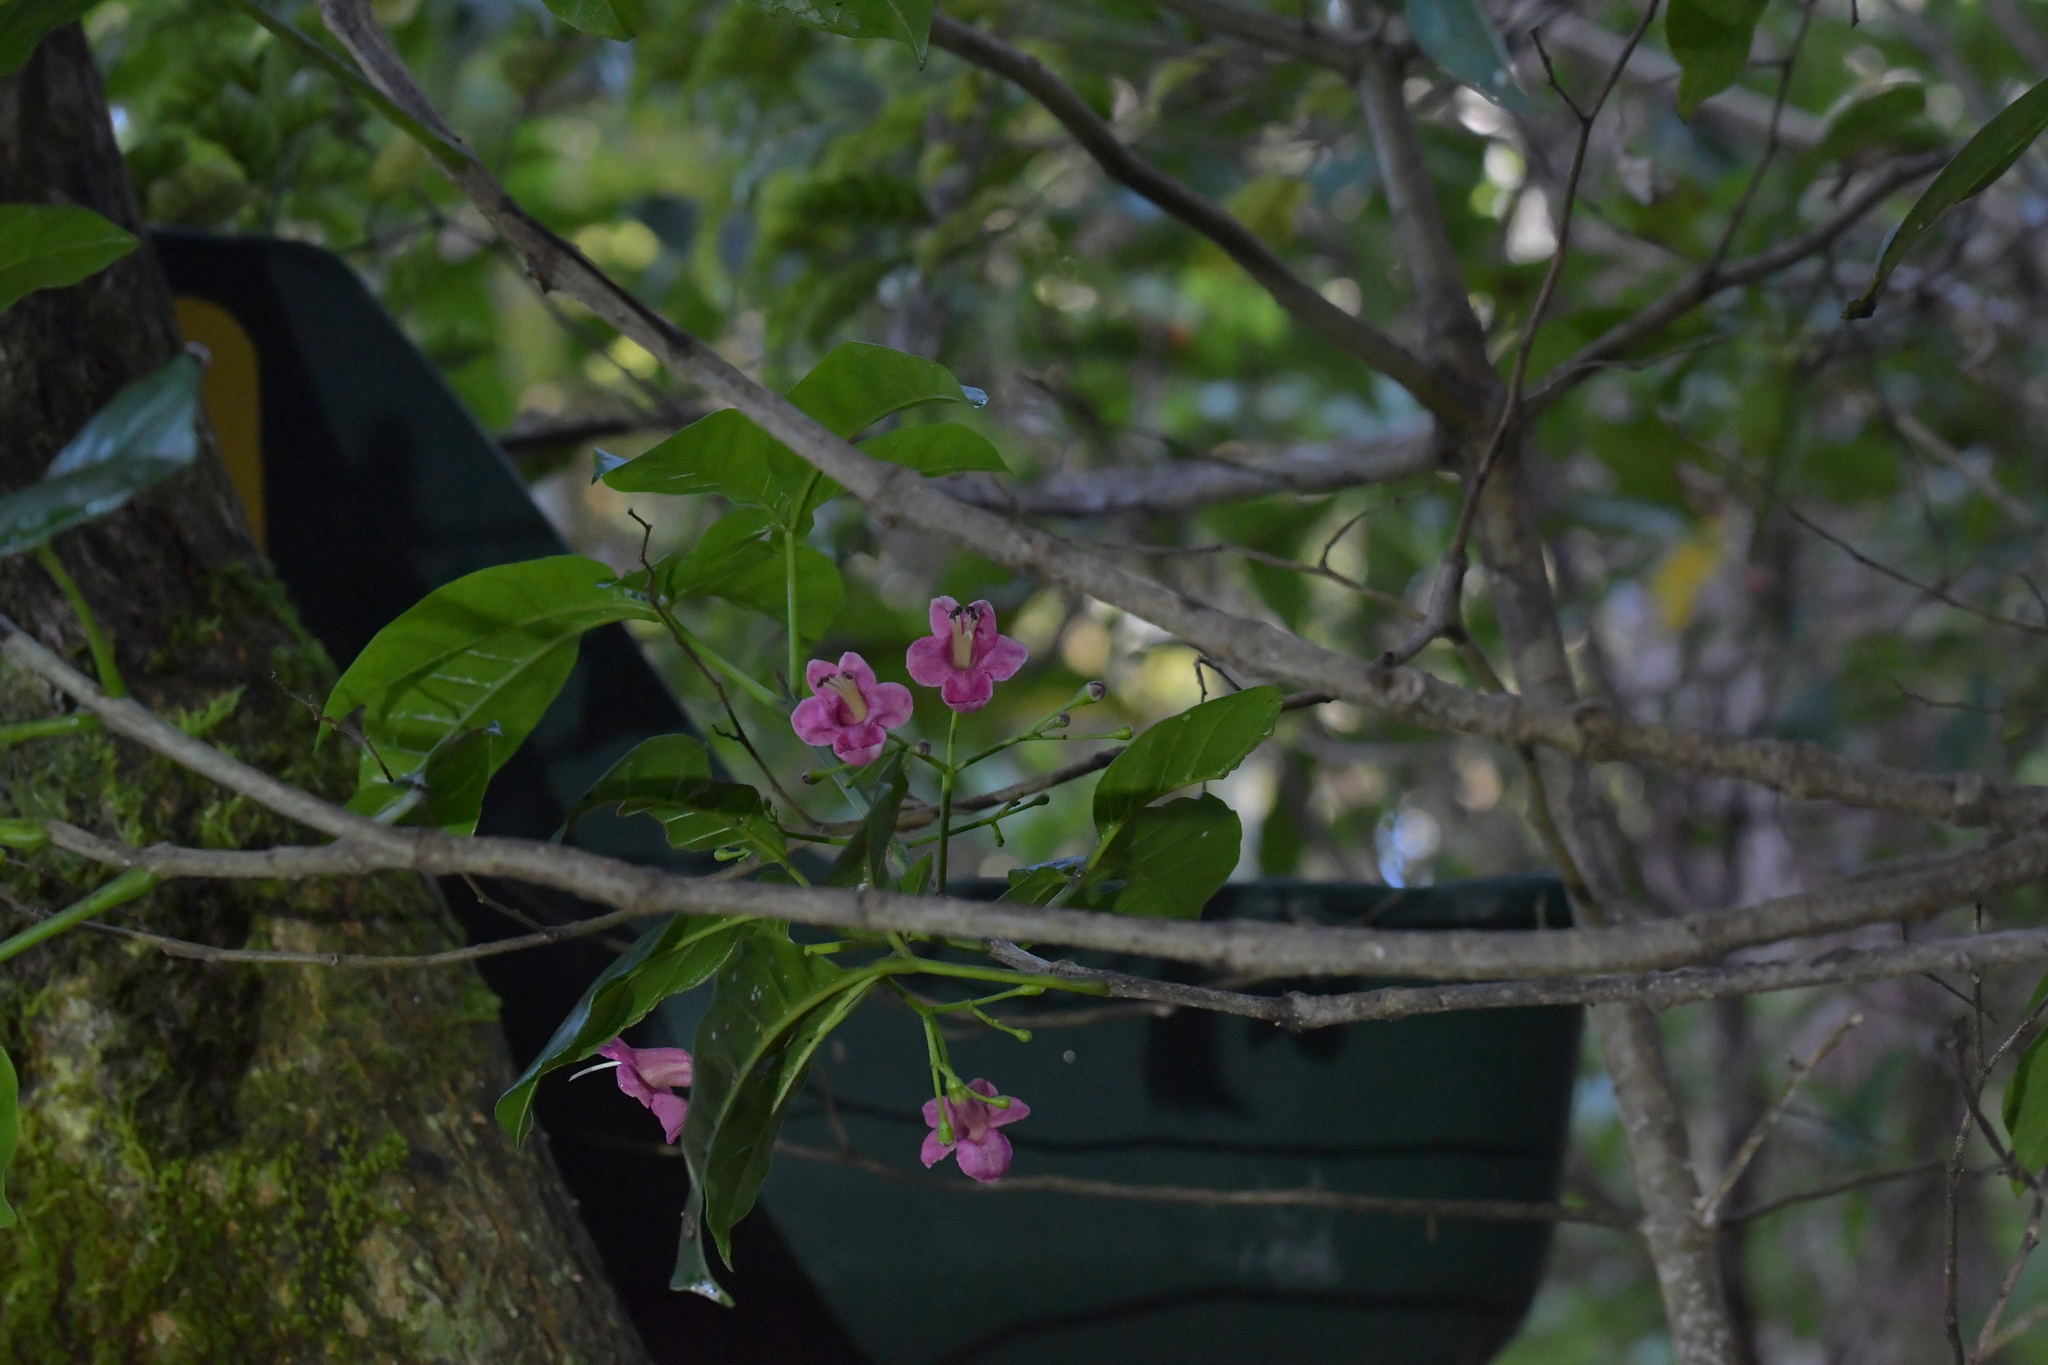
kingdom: Plantae
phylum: Tracheophyta
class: Magnoliopsida
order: Lamiales
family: Lamiaceae
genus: Vitex
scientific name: Vitex lucens
